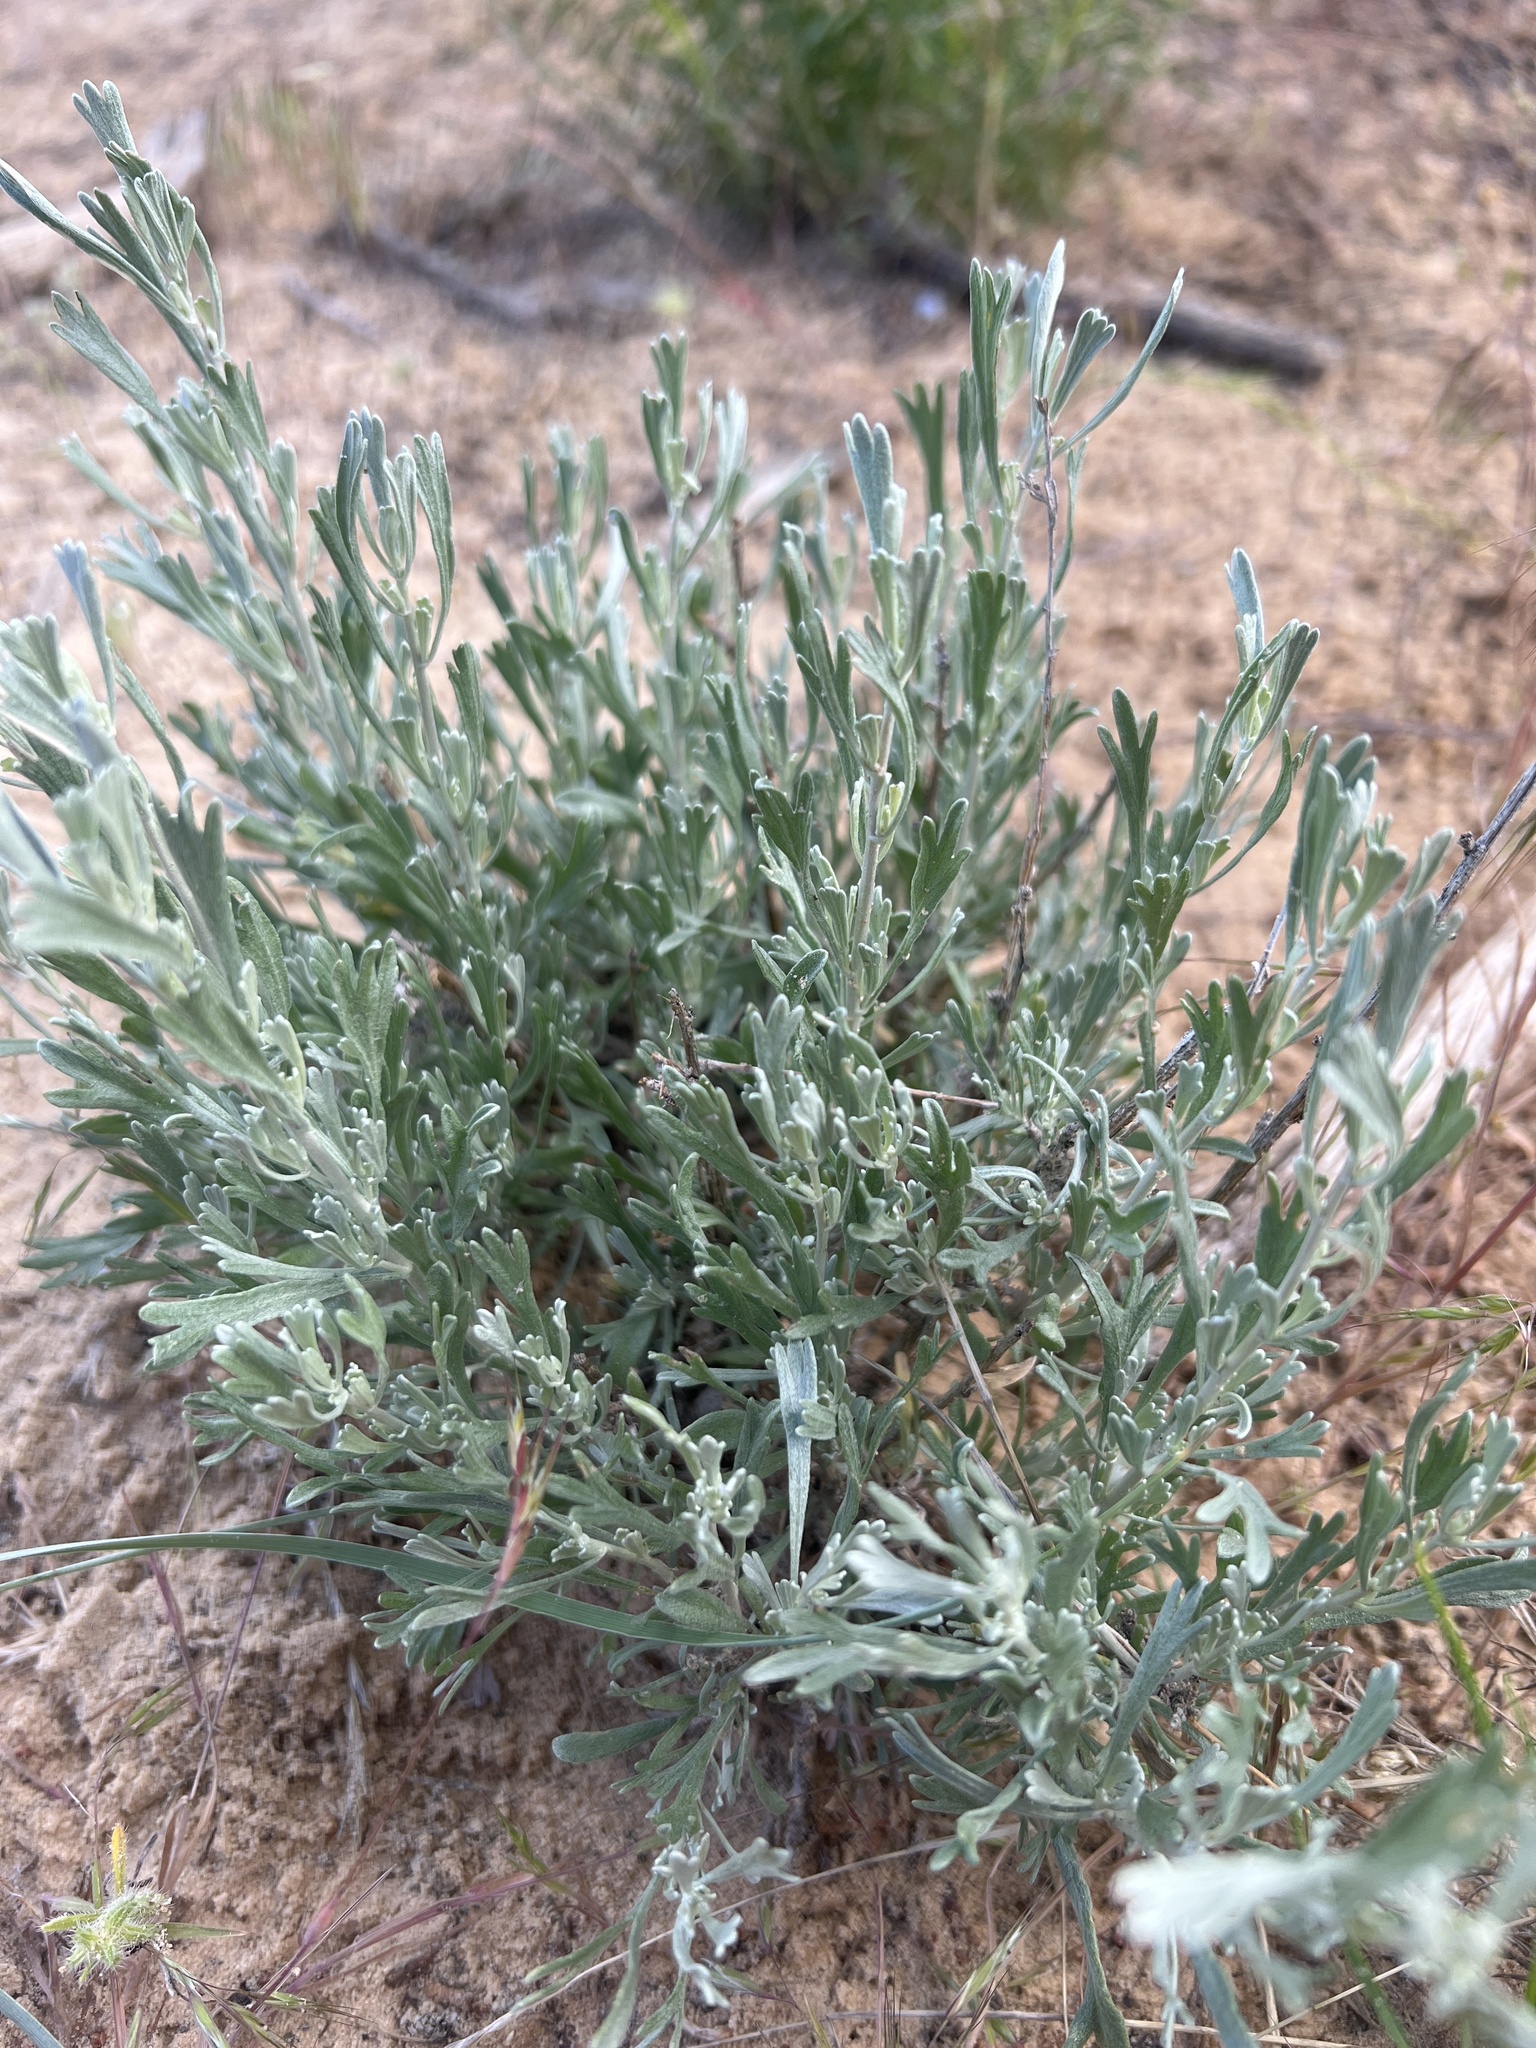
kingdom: Plantae
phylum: Tracheophyta
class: Magnoliopsida
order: Asterales
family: Asteraceae
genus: Artemisia
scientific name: Artemisia tridentata
